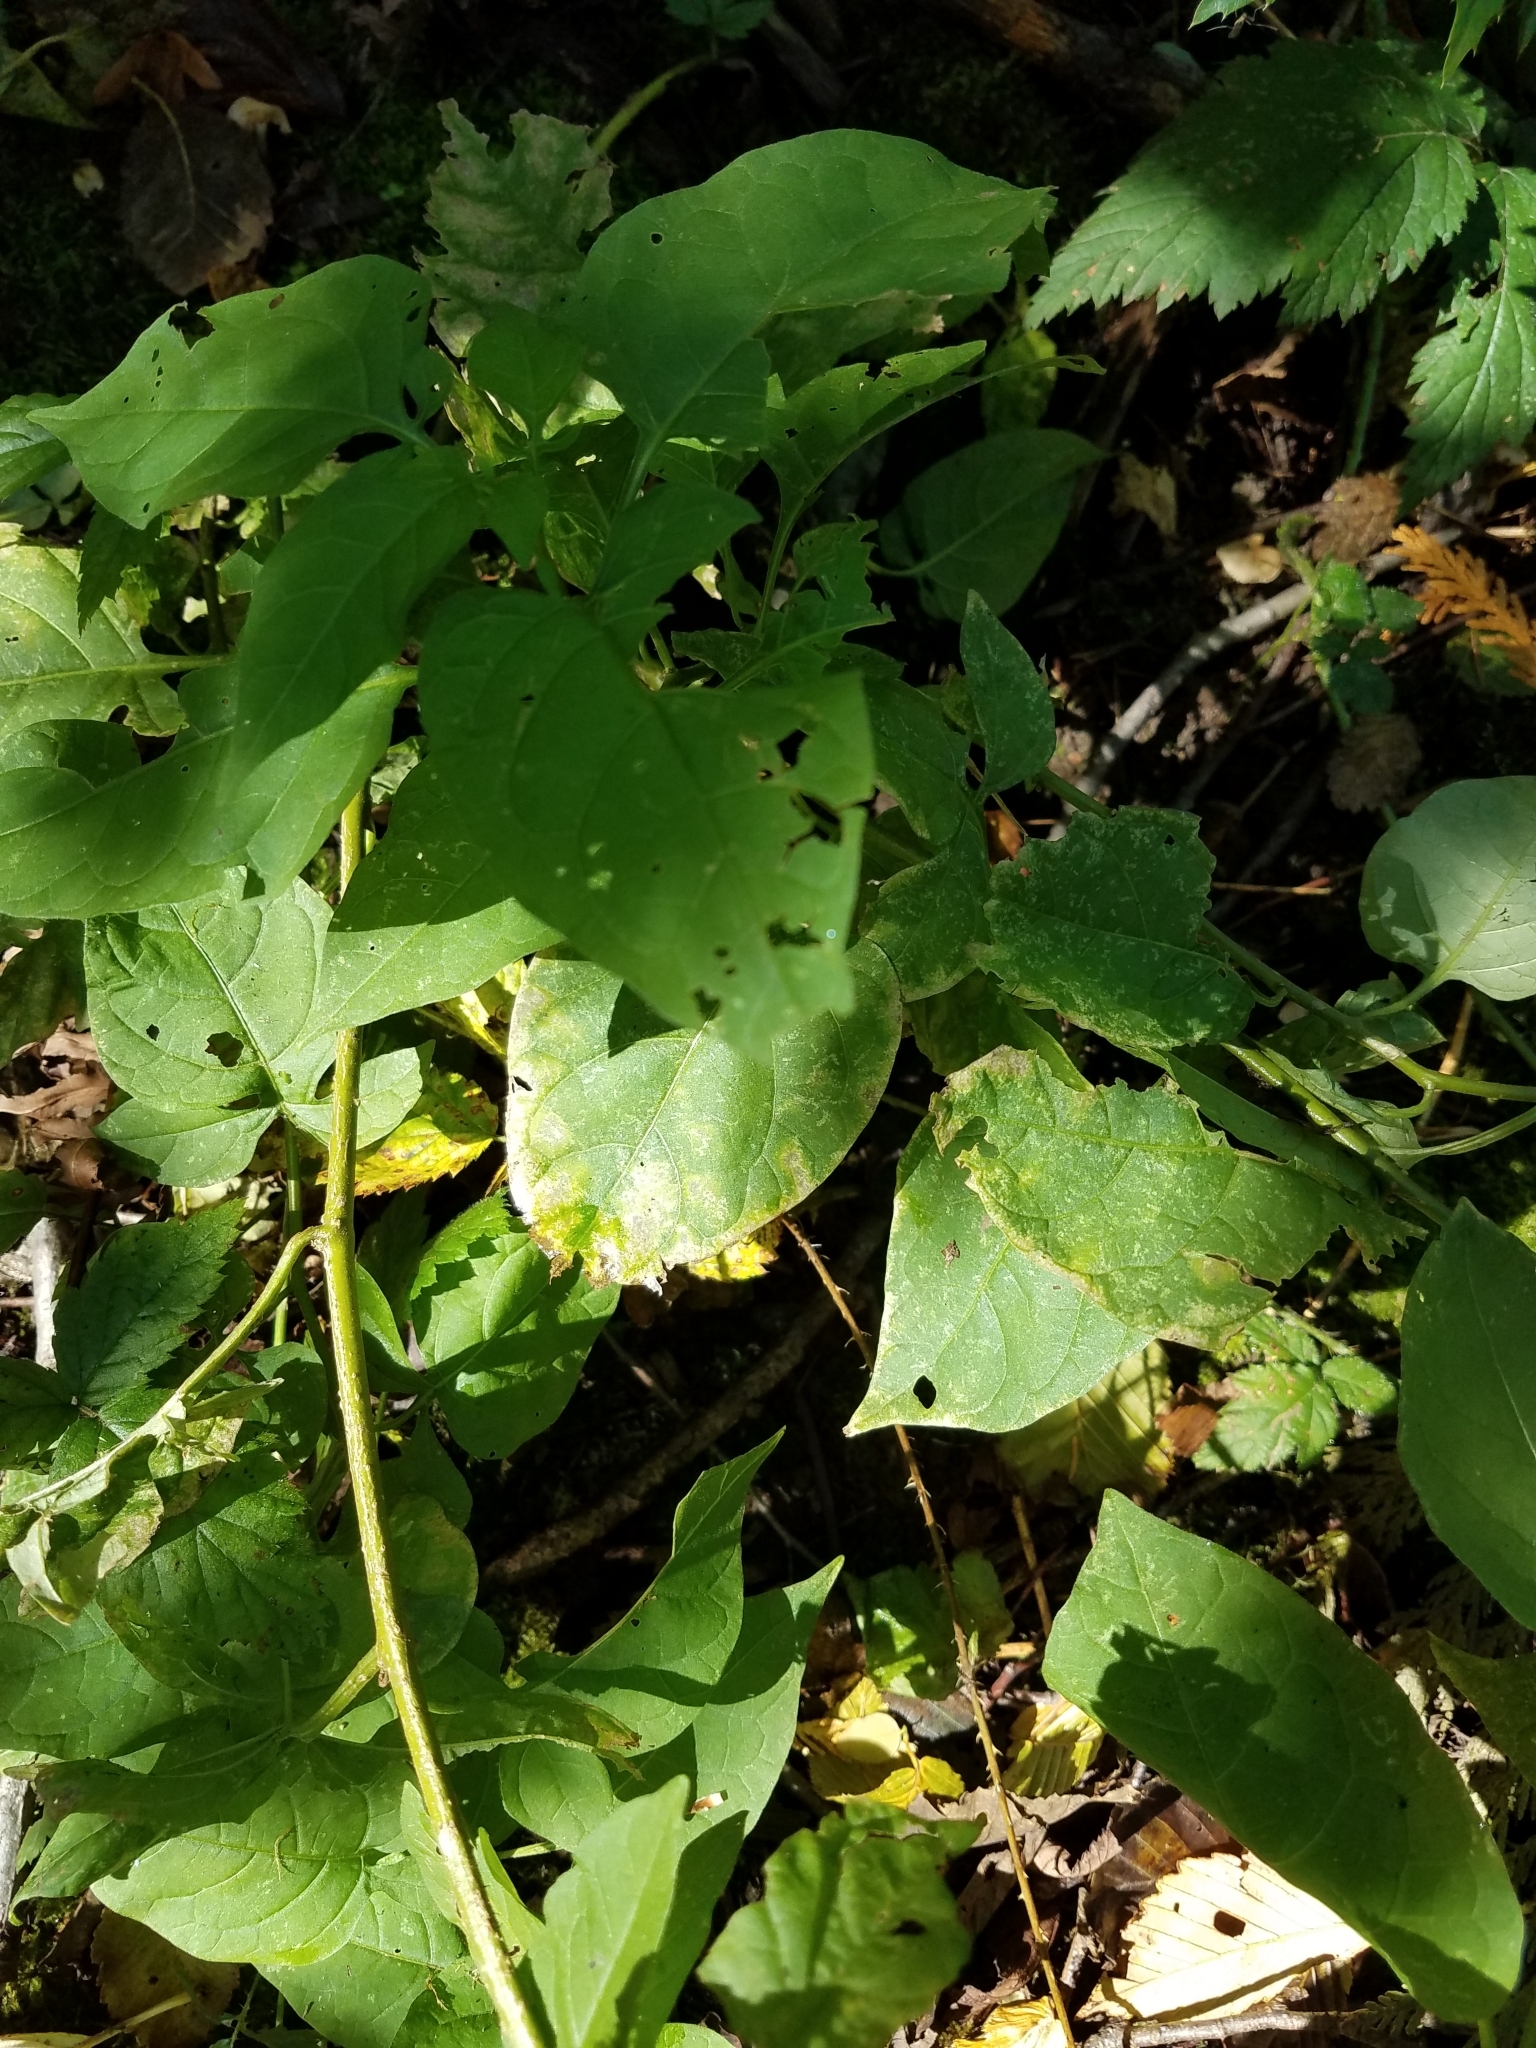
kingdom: Plantae
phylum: Tracheophyta
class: Magnoliopsida
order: Solanales
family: Solanaceae
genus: Solanum
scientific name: Solanum dulcamara
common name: Climbing nightshade
